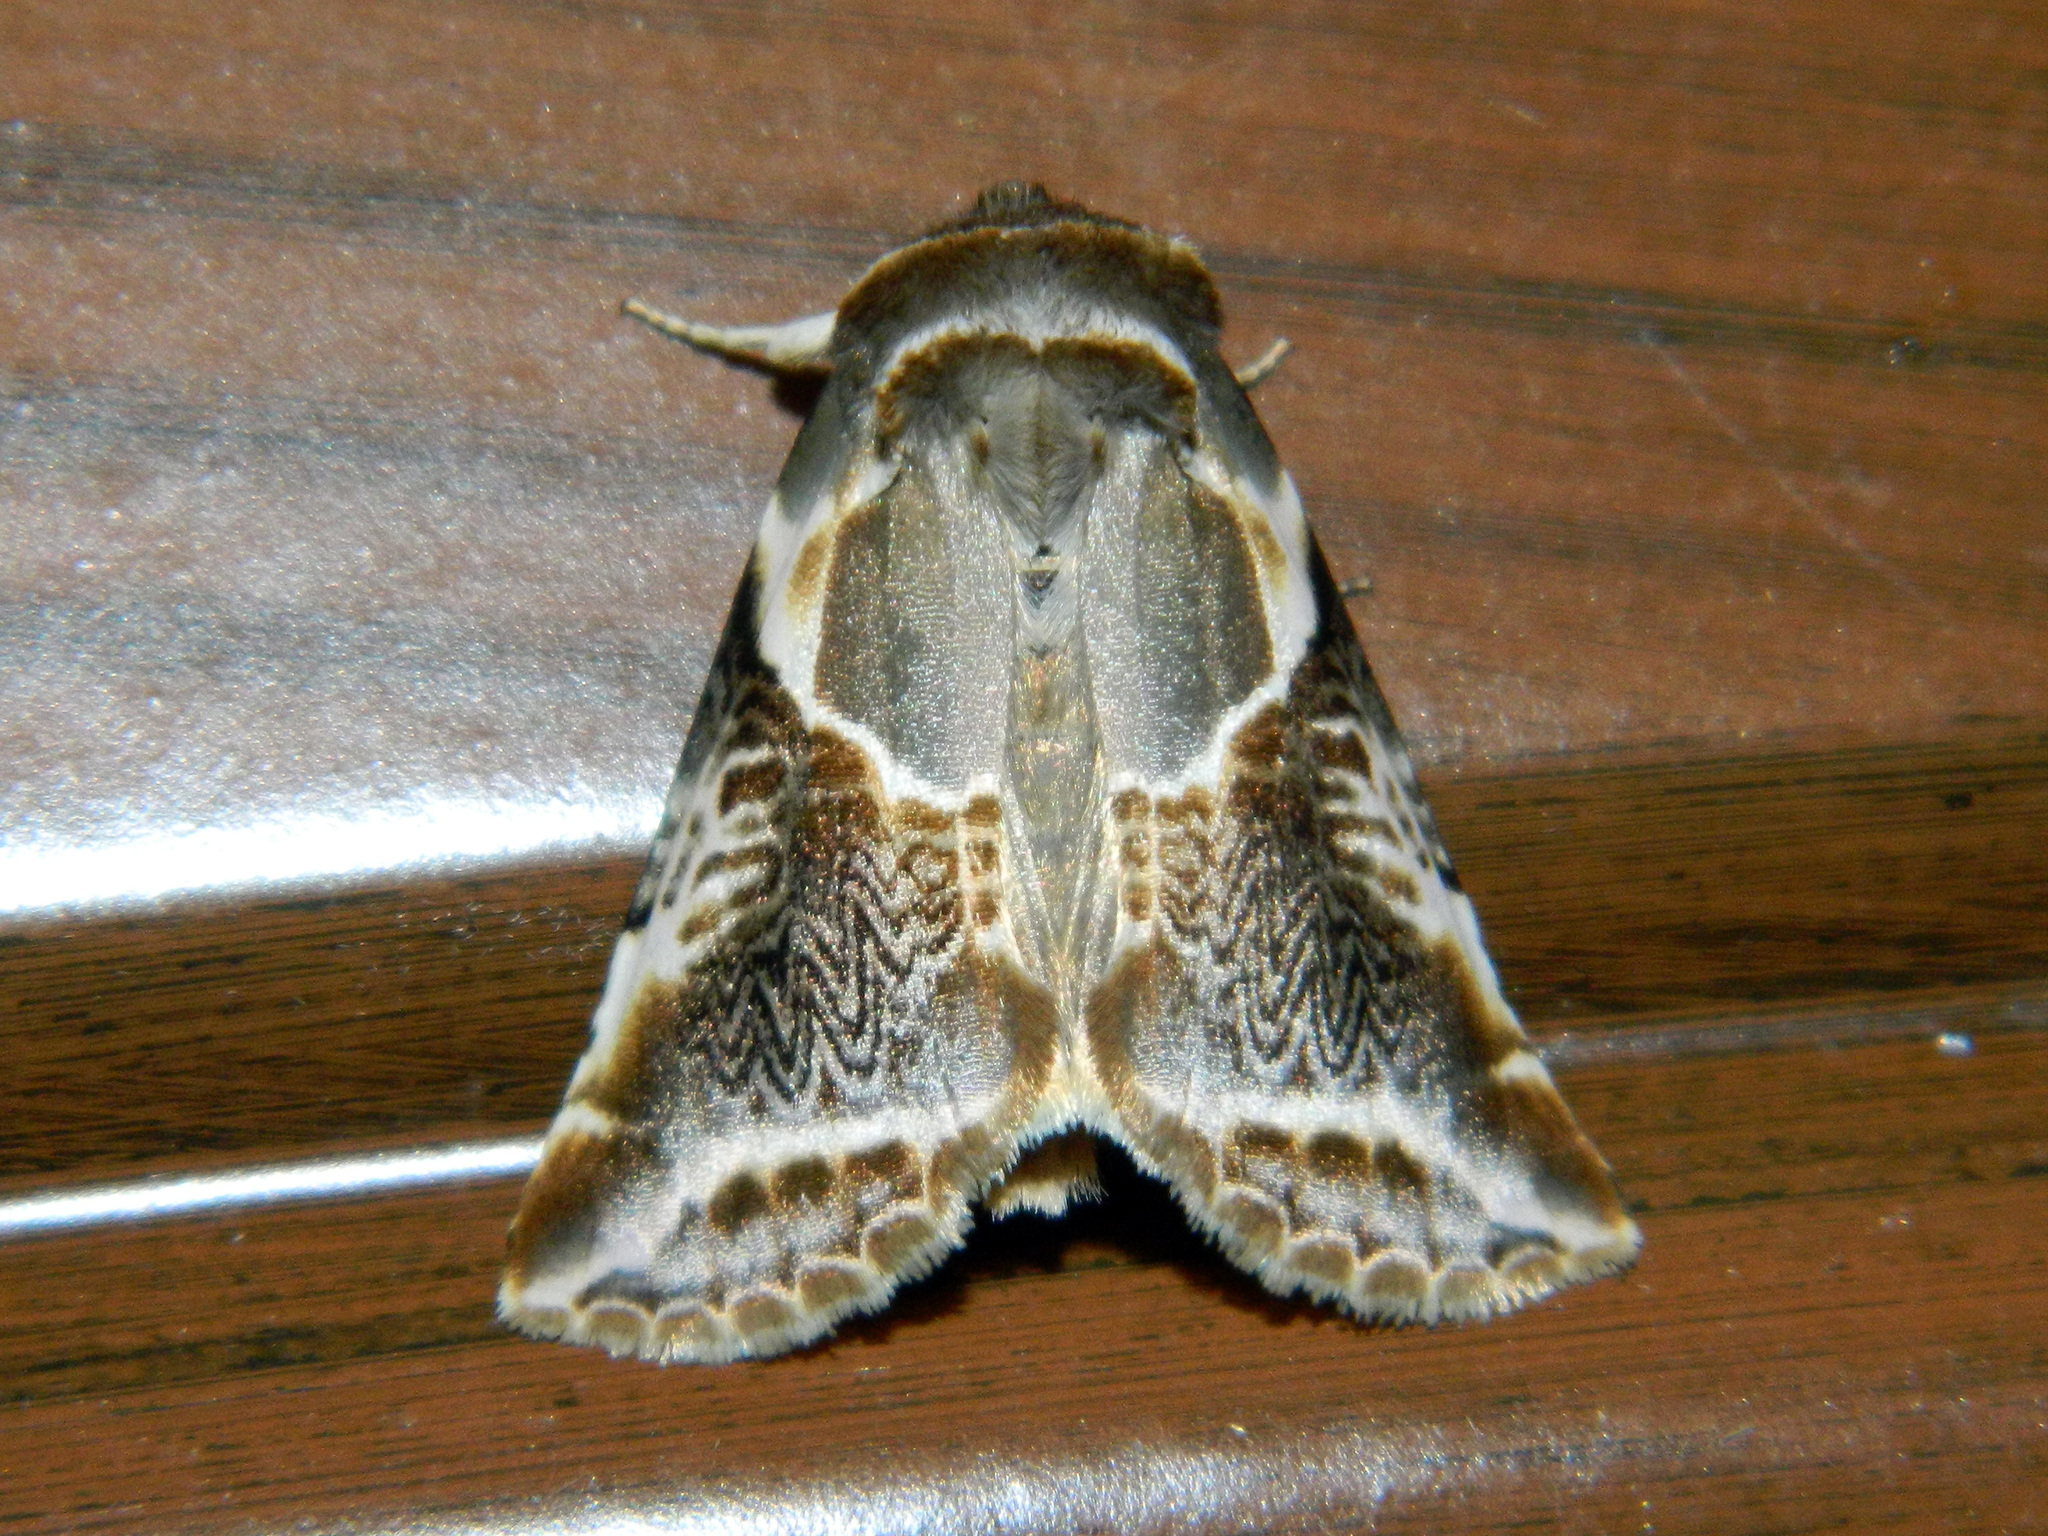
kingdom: Animalia
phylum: Arthropoda
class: Insecta
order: Lepidoptera
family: Drepanidae
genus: Habrosyne
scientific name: Habrosyne scripta
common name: Lettered habrosyne moth
